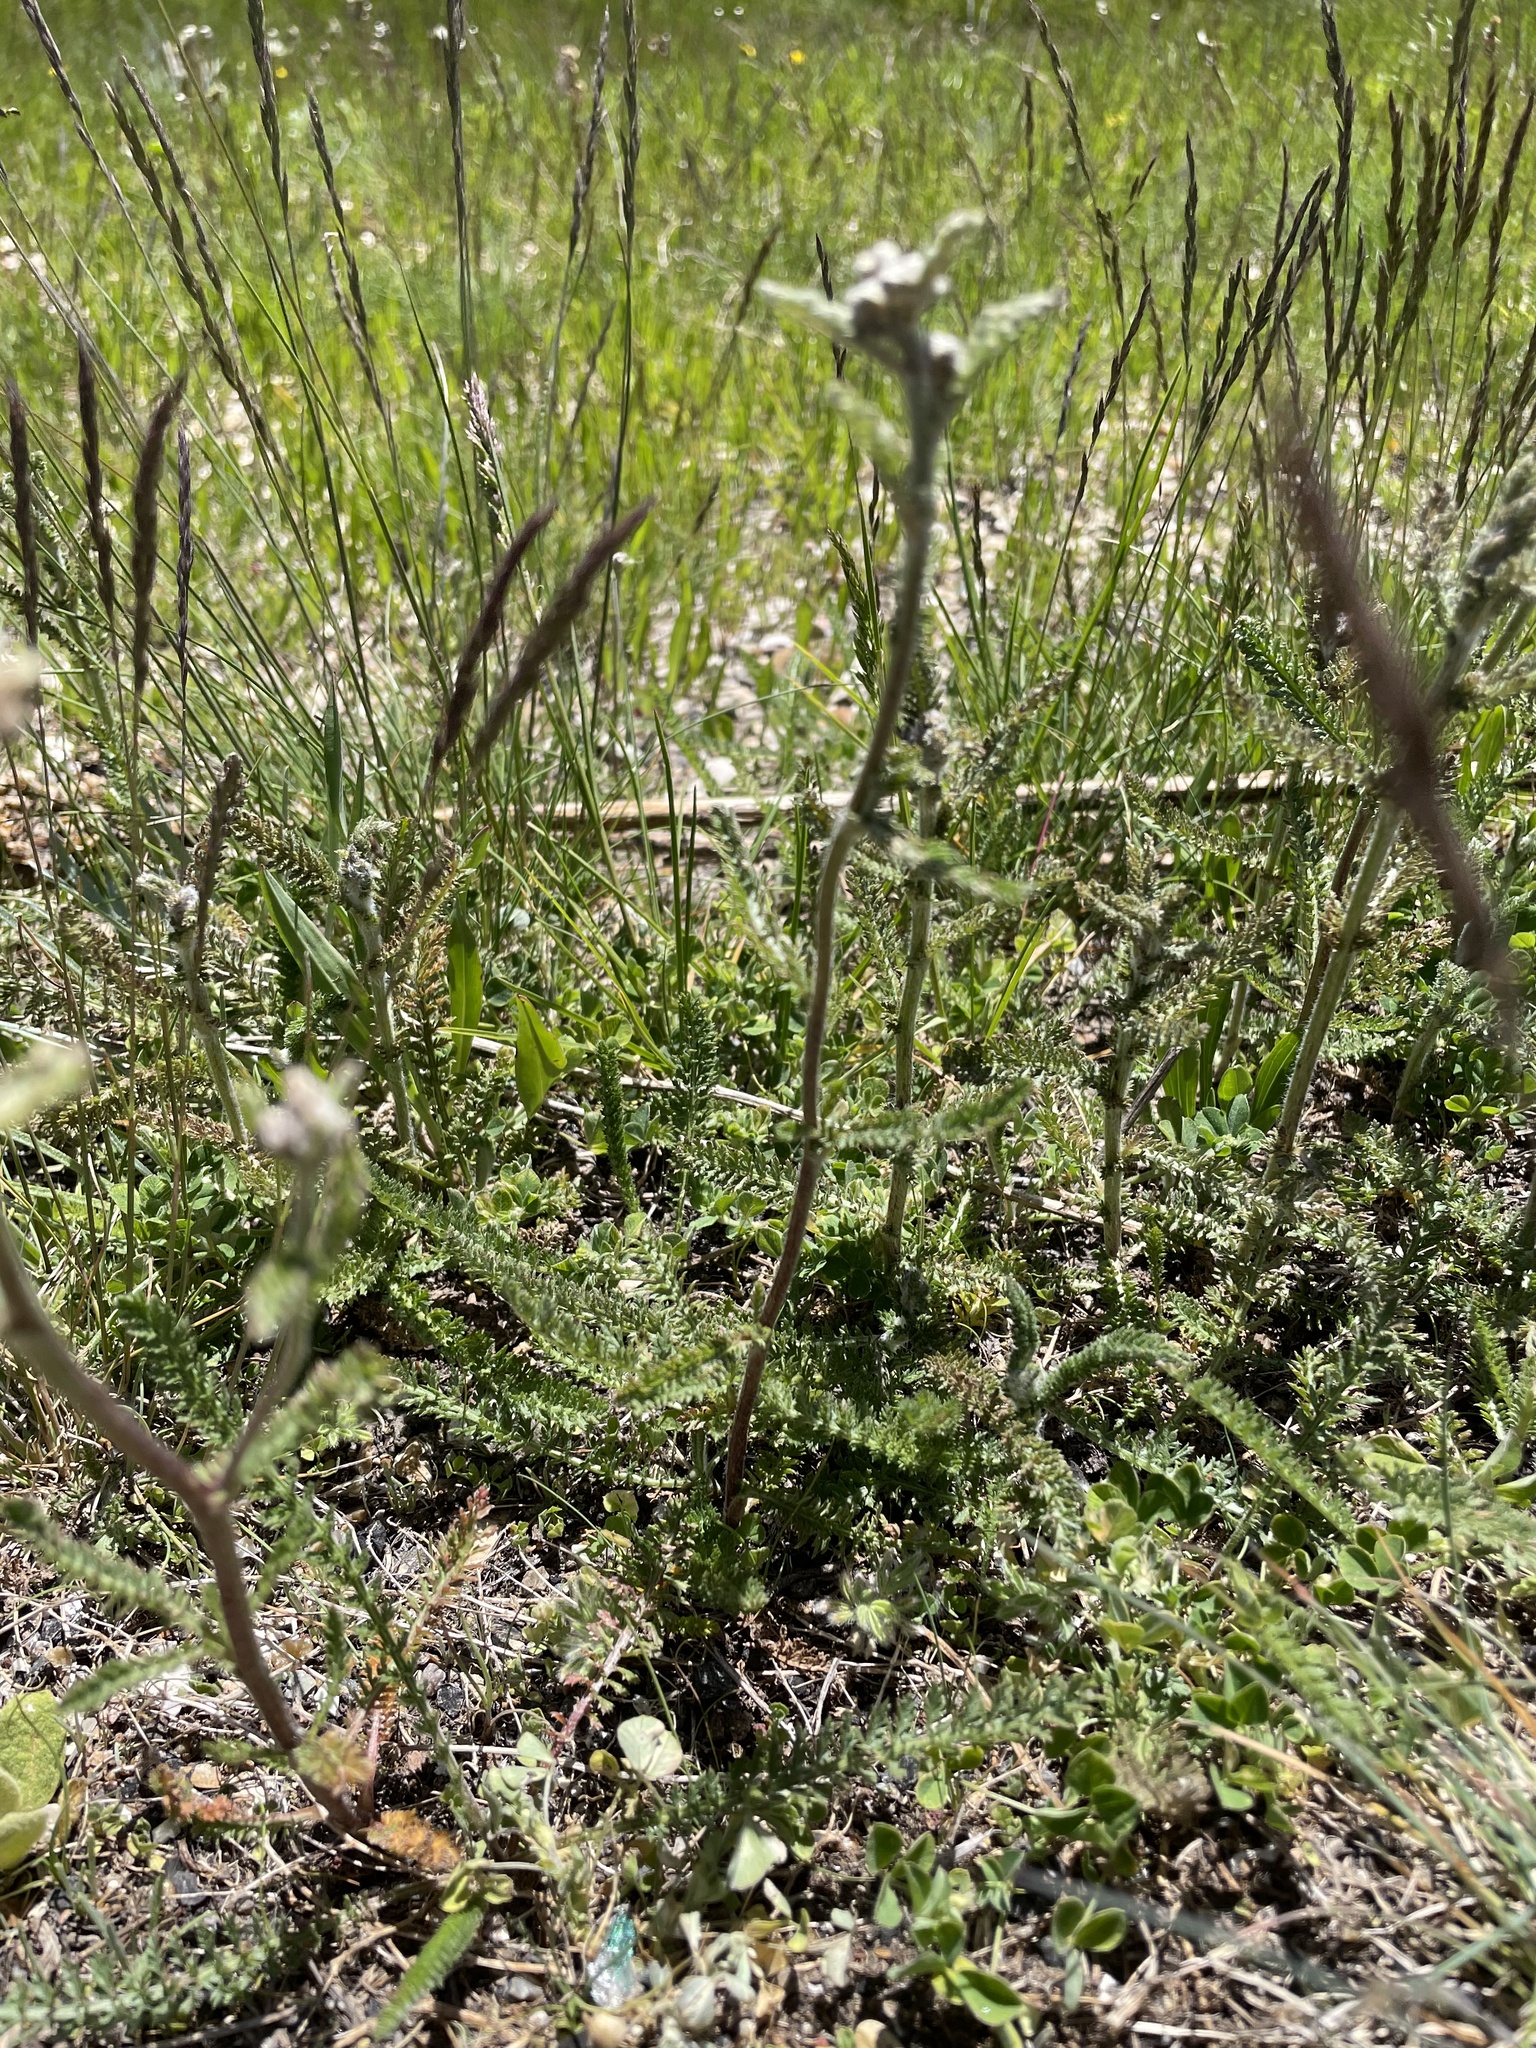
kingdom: Plantae
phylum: Tracheophyta
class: Magnoliopsida
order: Asterales
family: Asteraceae
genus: Achillea
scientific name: Achillea millefolium
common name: Yarrow
